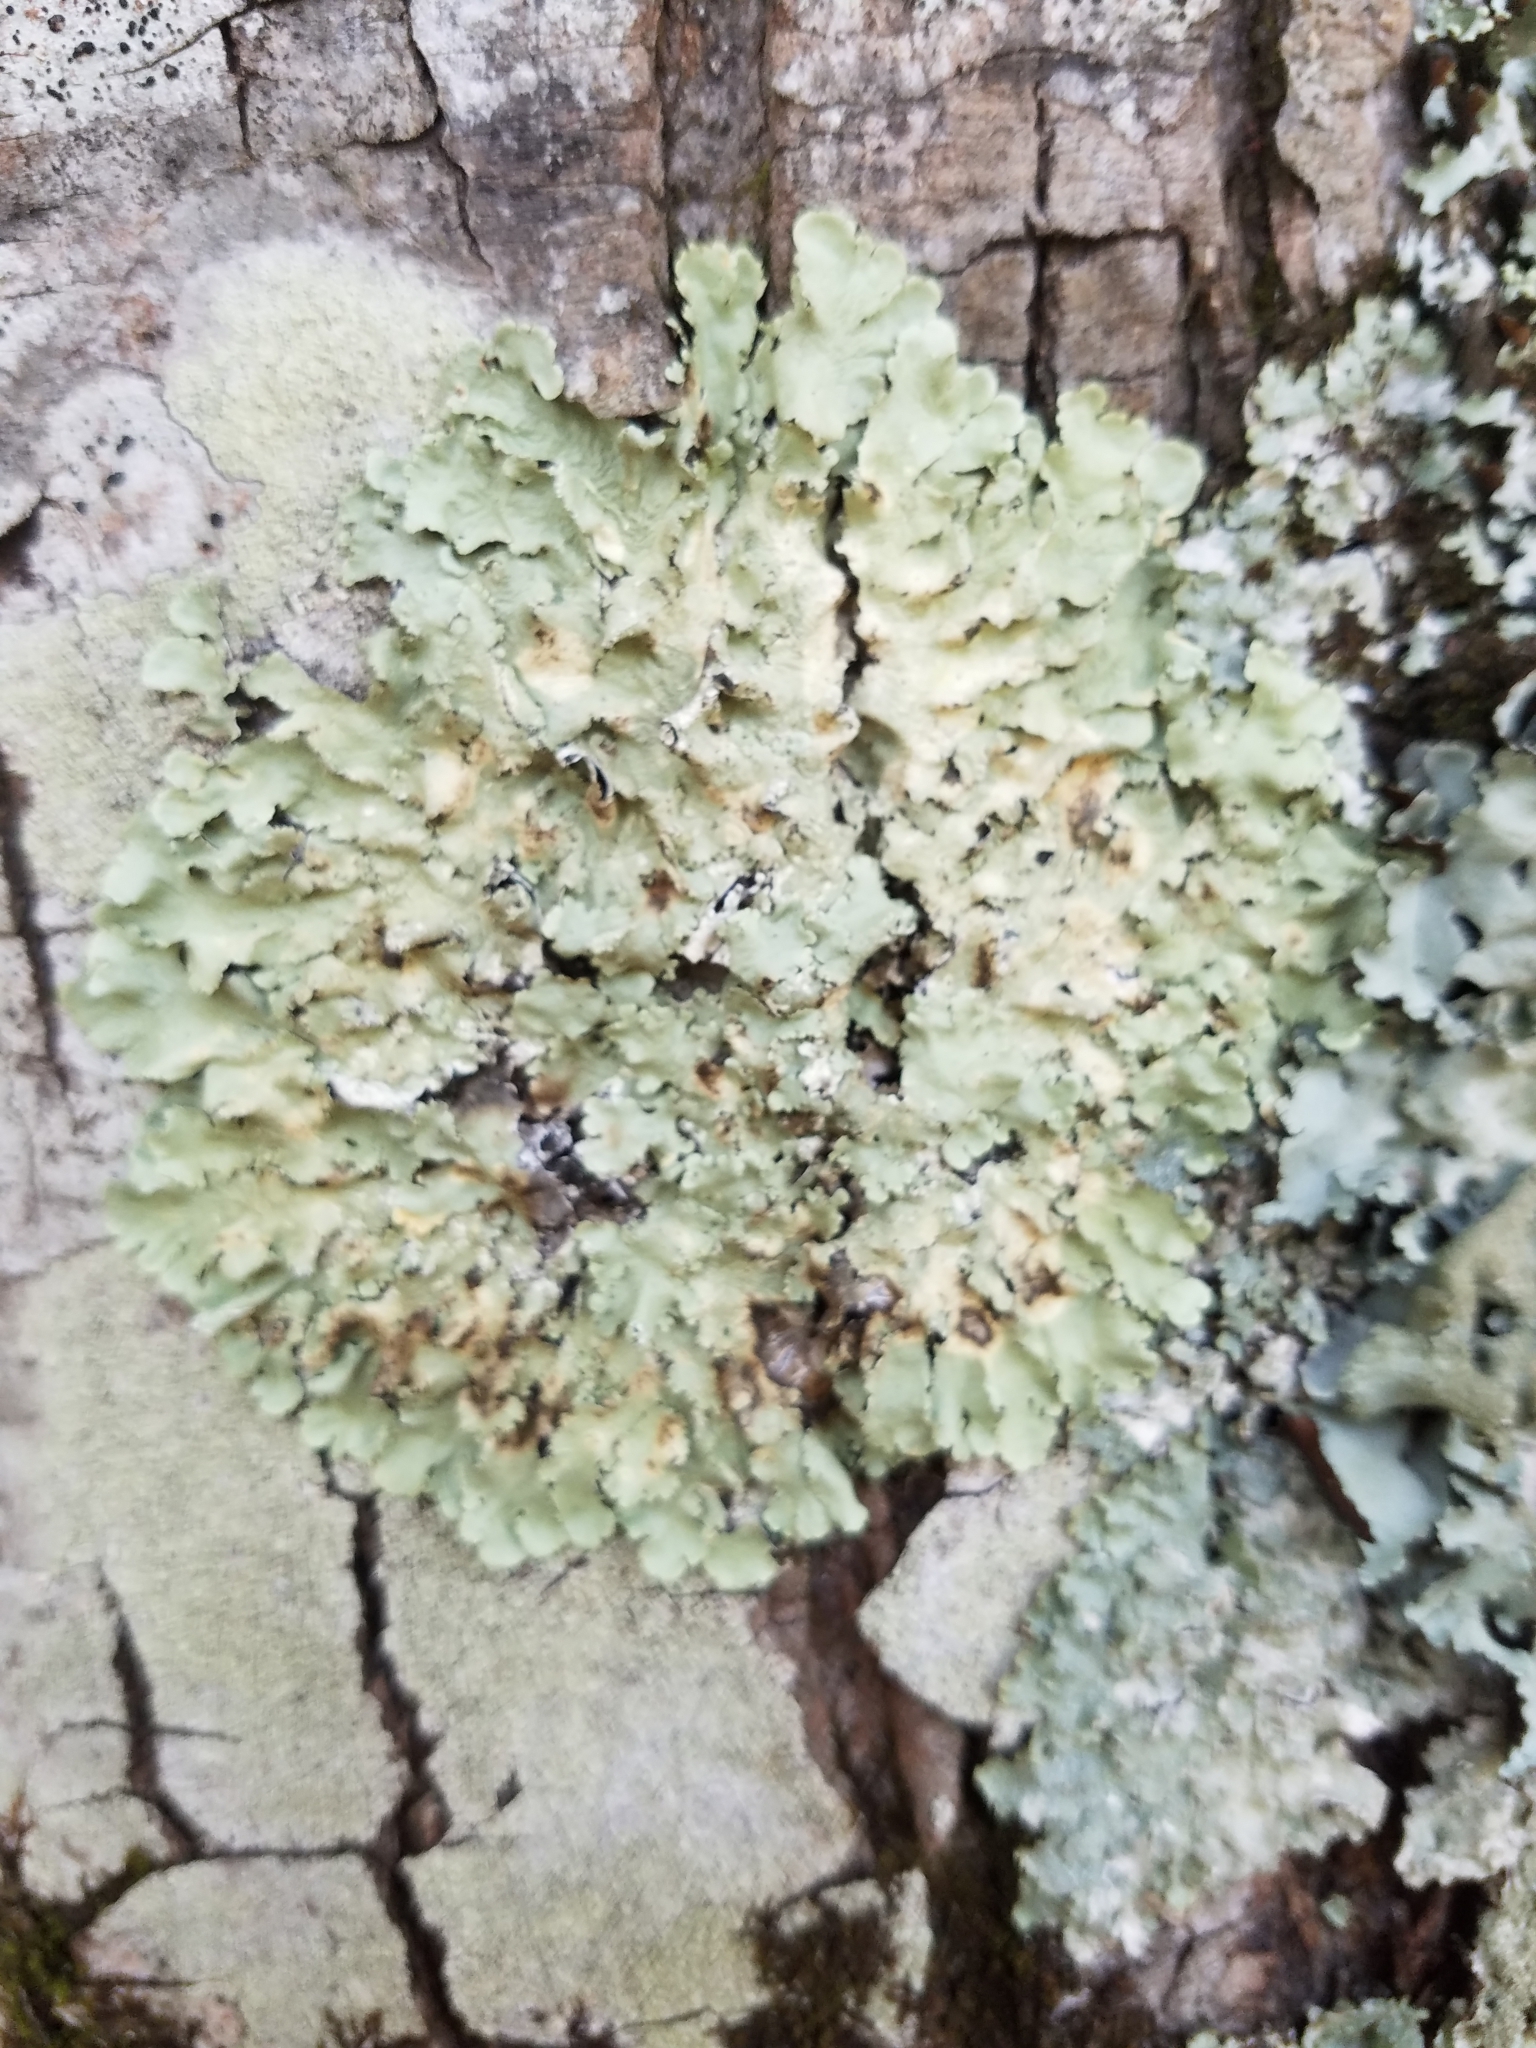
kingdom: Fungi
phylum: Ascomycota
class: Lecanoromycetes
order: Lecanorales
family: Parmeliaceae
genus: Flavoparmelia
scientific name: Flavoparmelia caperata
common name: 40-mile per hour lichen
